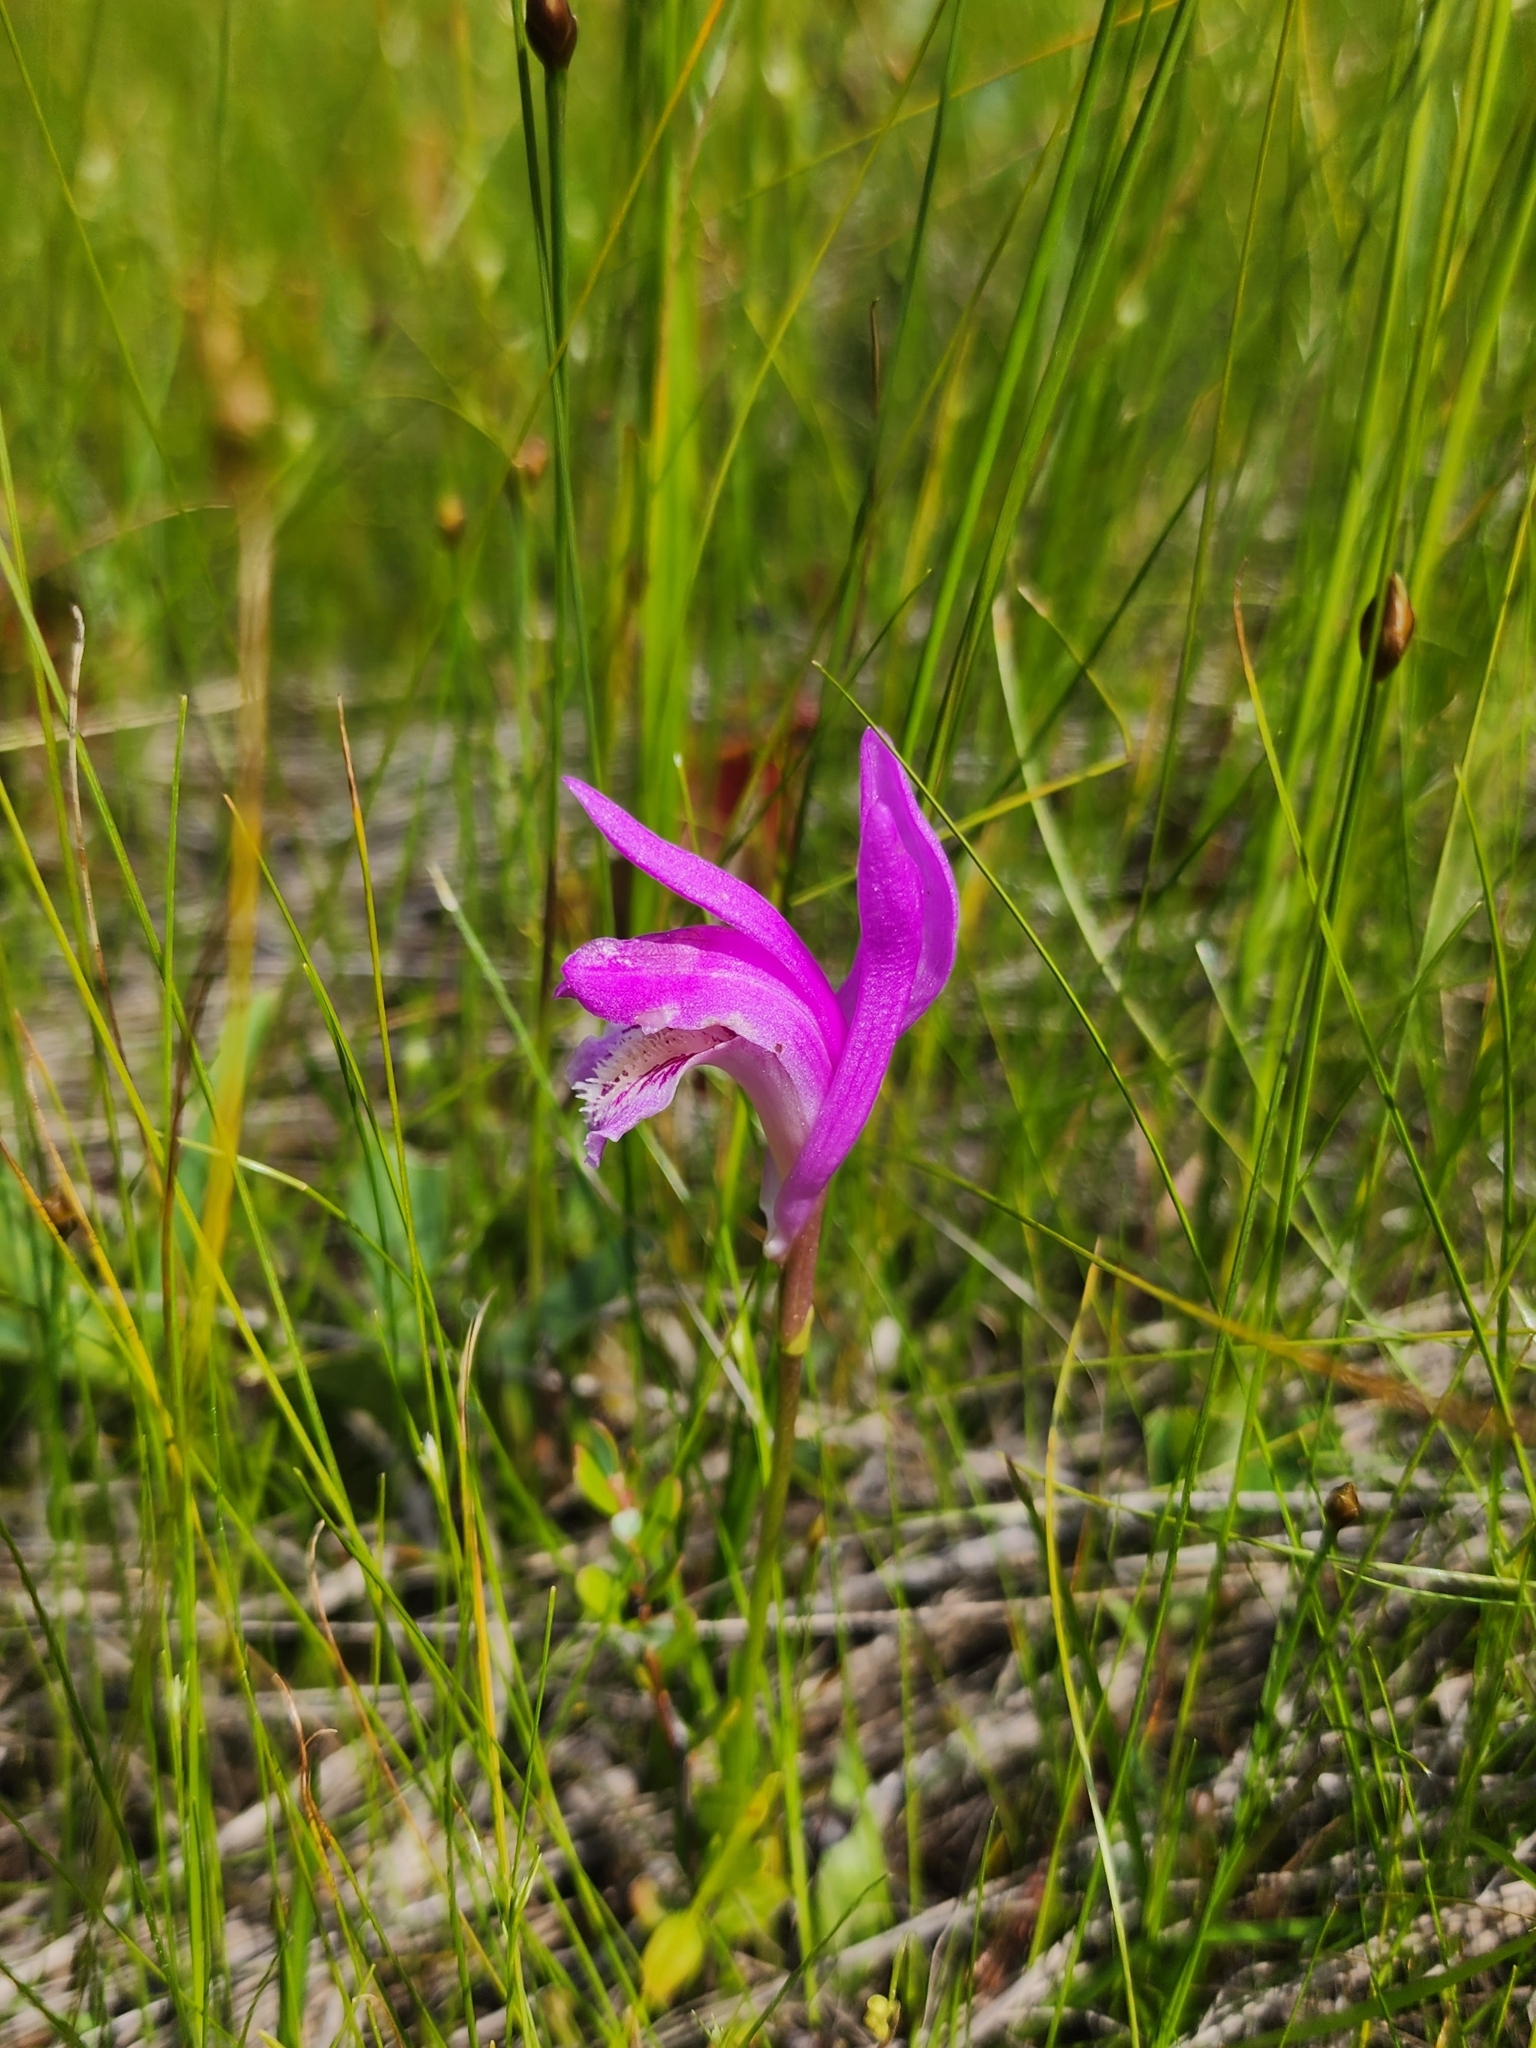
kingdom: Plantae
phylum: Tracheophyta
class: Liliopsida
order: Asparagales
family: Orchidaceae
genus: Arethusa
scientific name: Arethusa bulbosa
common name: Arethusa
